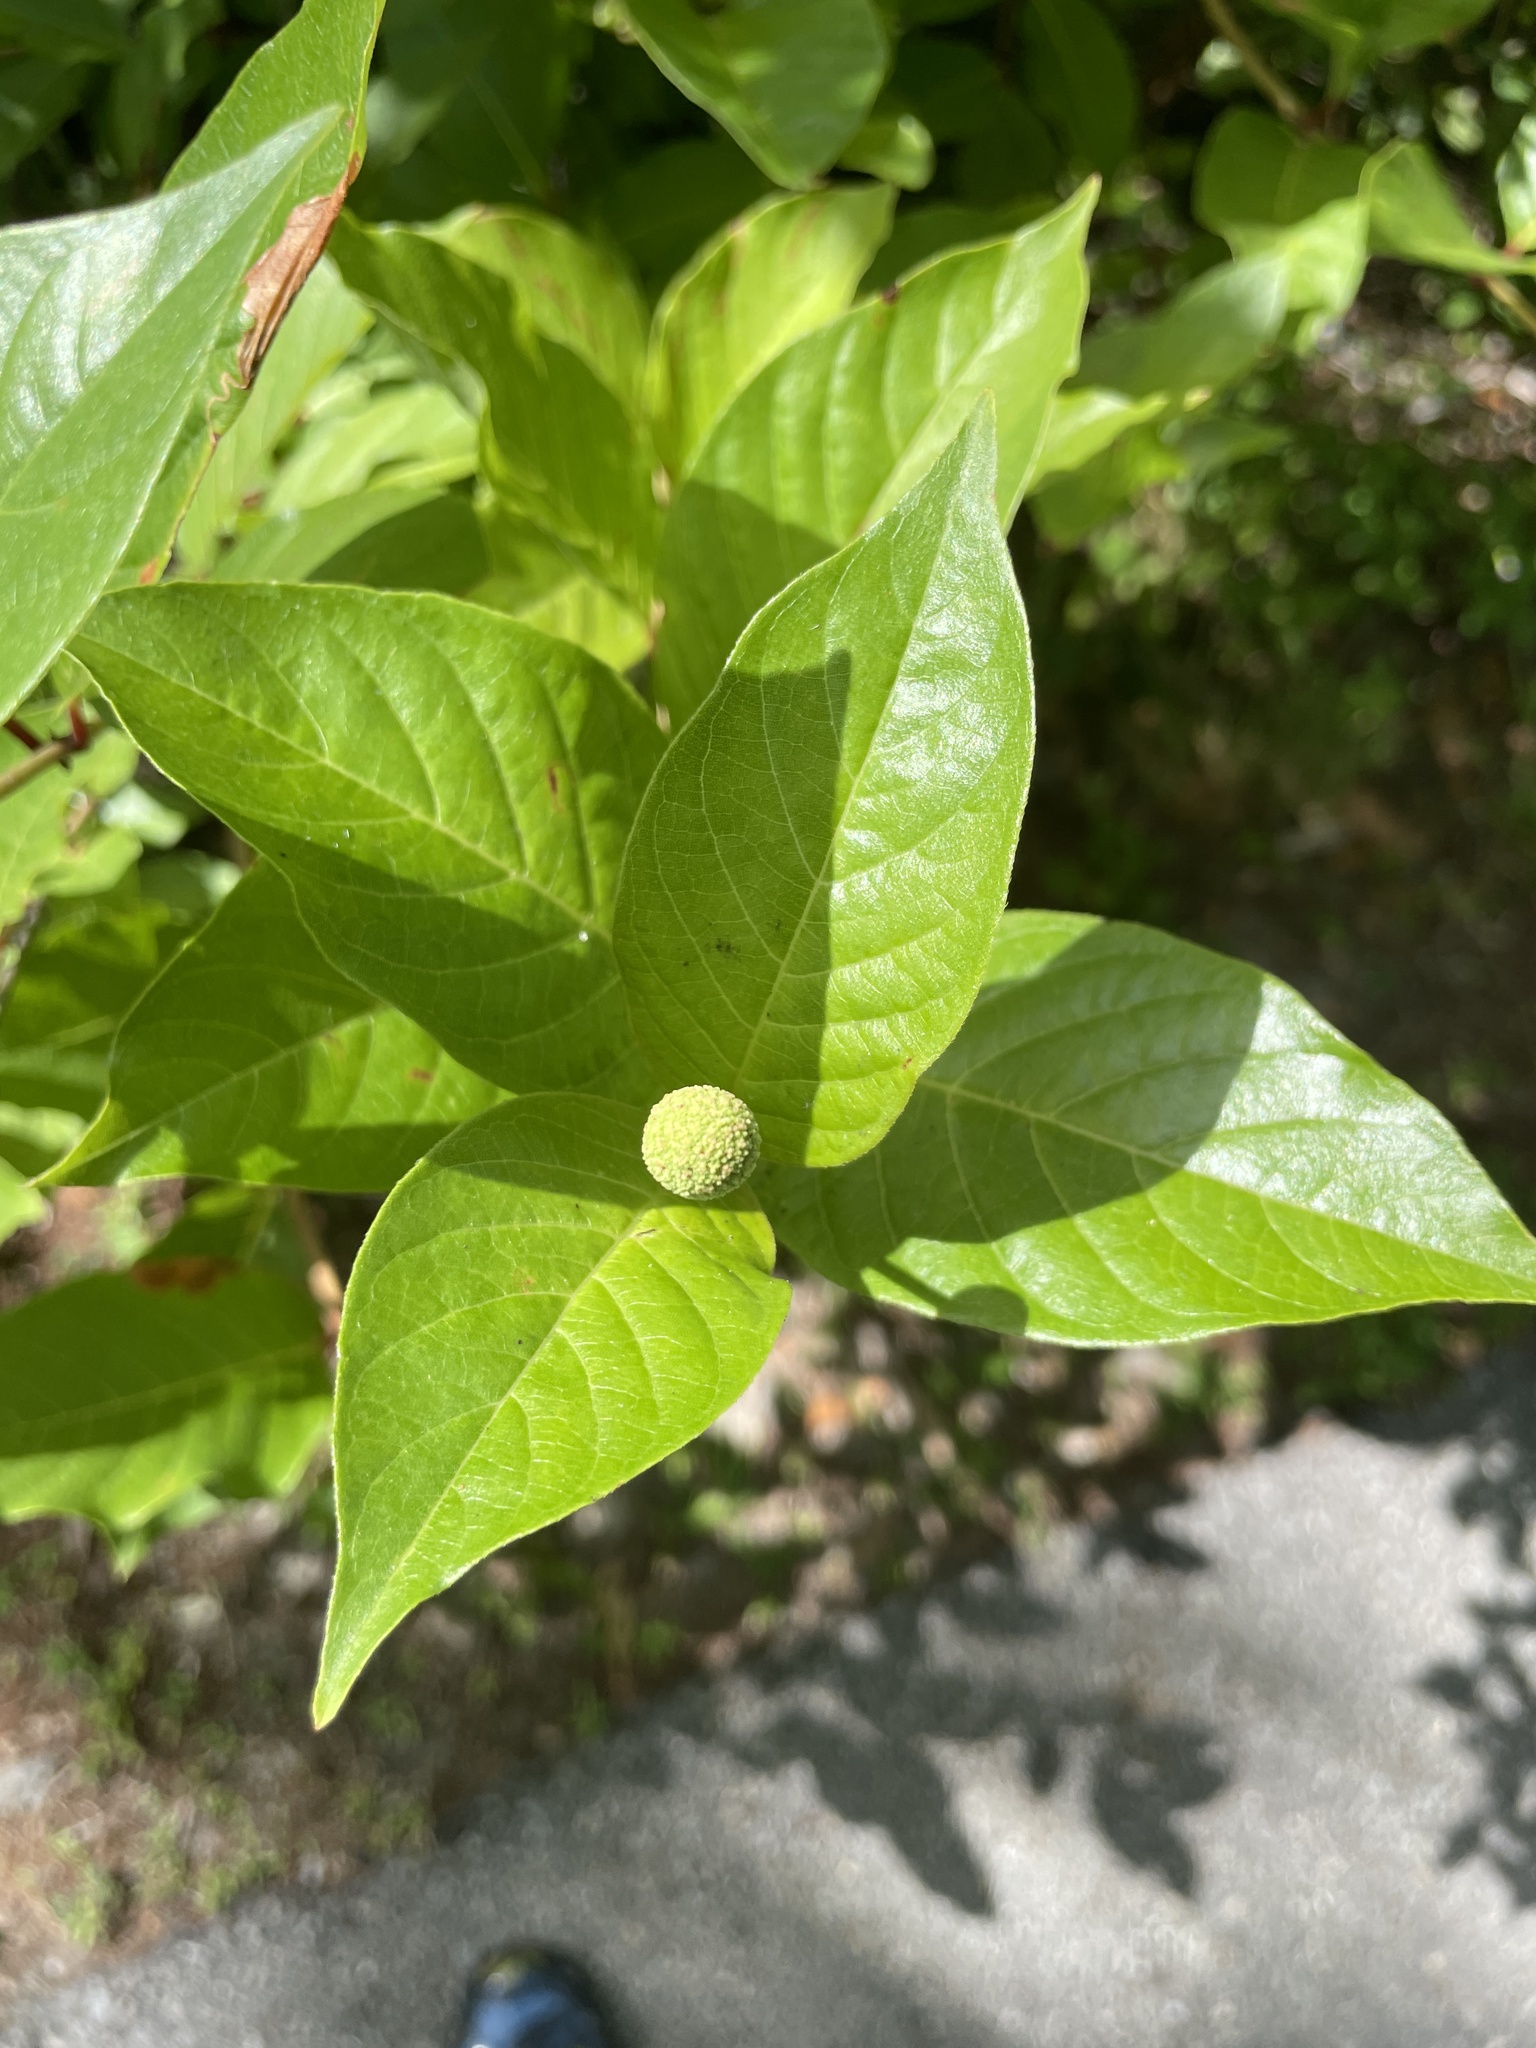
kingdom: Plantae
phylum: Tracheophyta
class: Magnoliopsida
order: Gentianales
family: Rubiaceae
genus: Cephalanthus
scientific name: Cephalanthus occidentalis
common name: Button-willow
